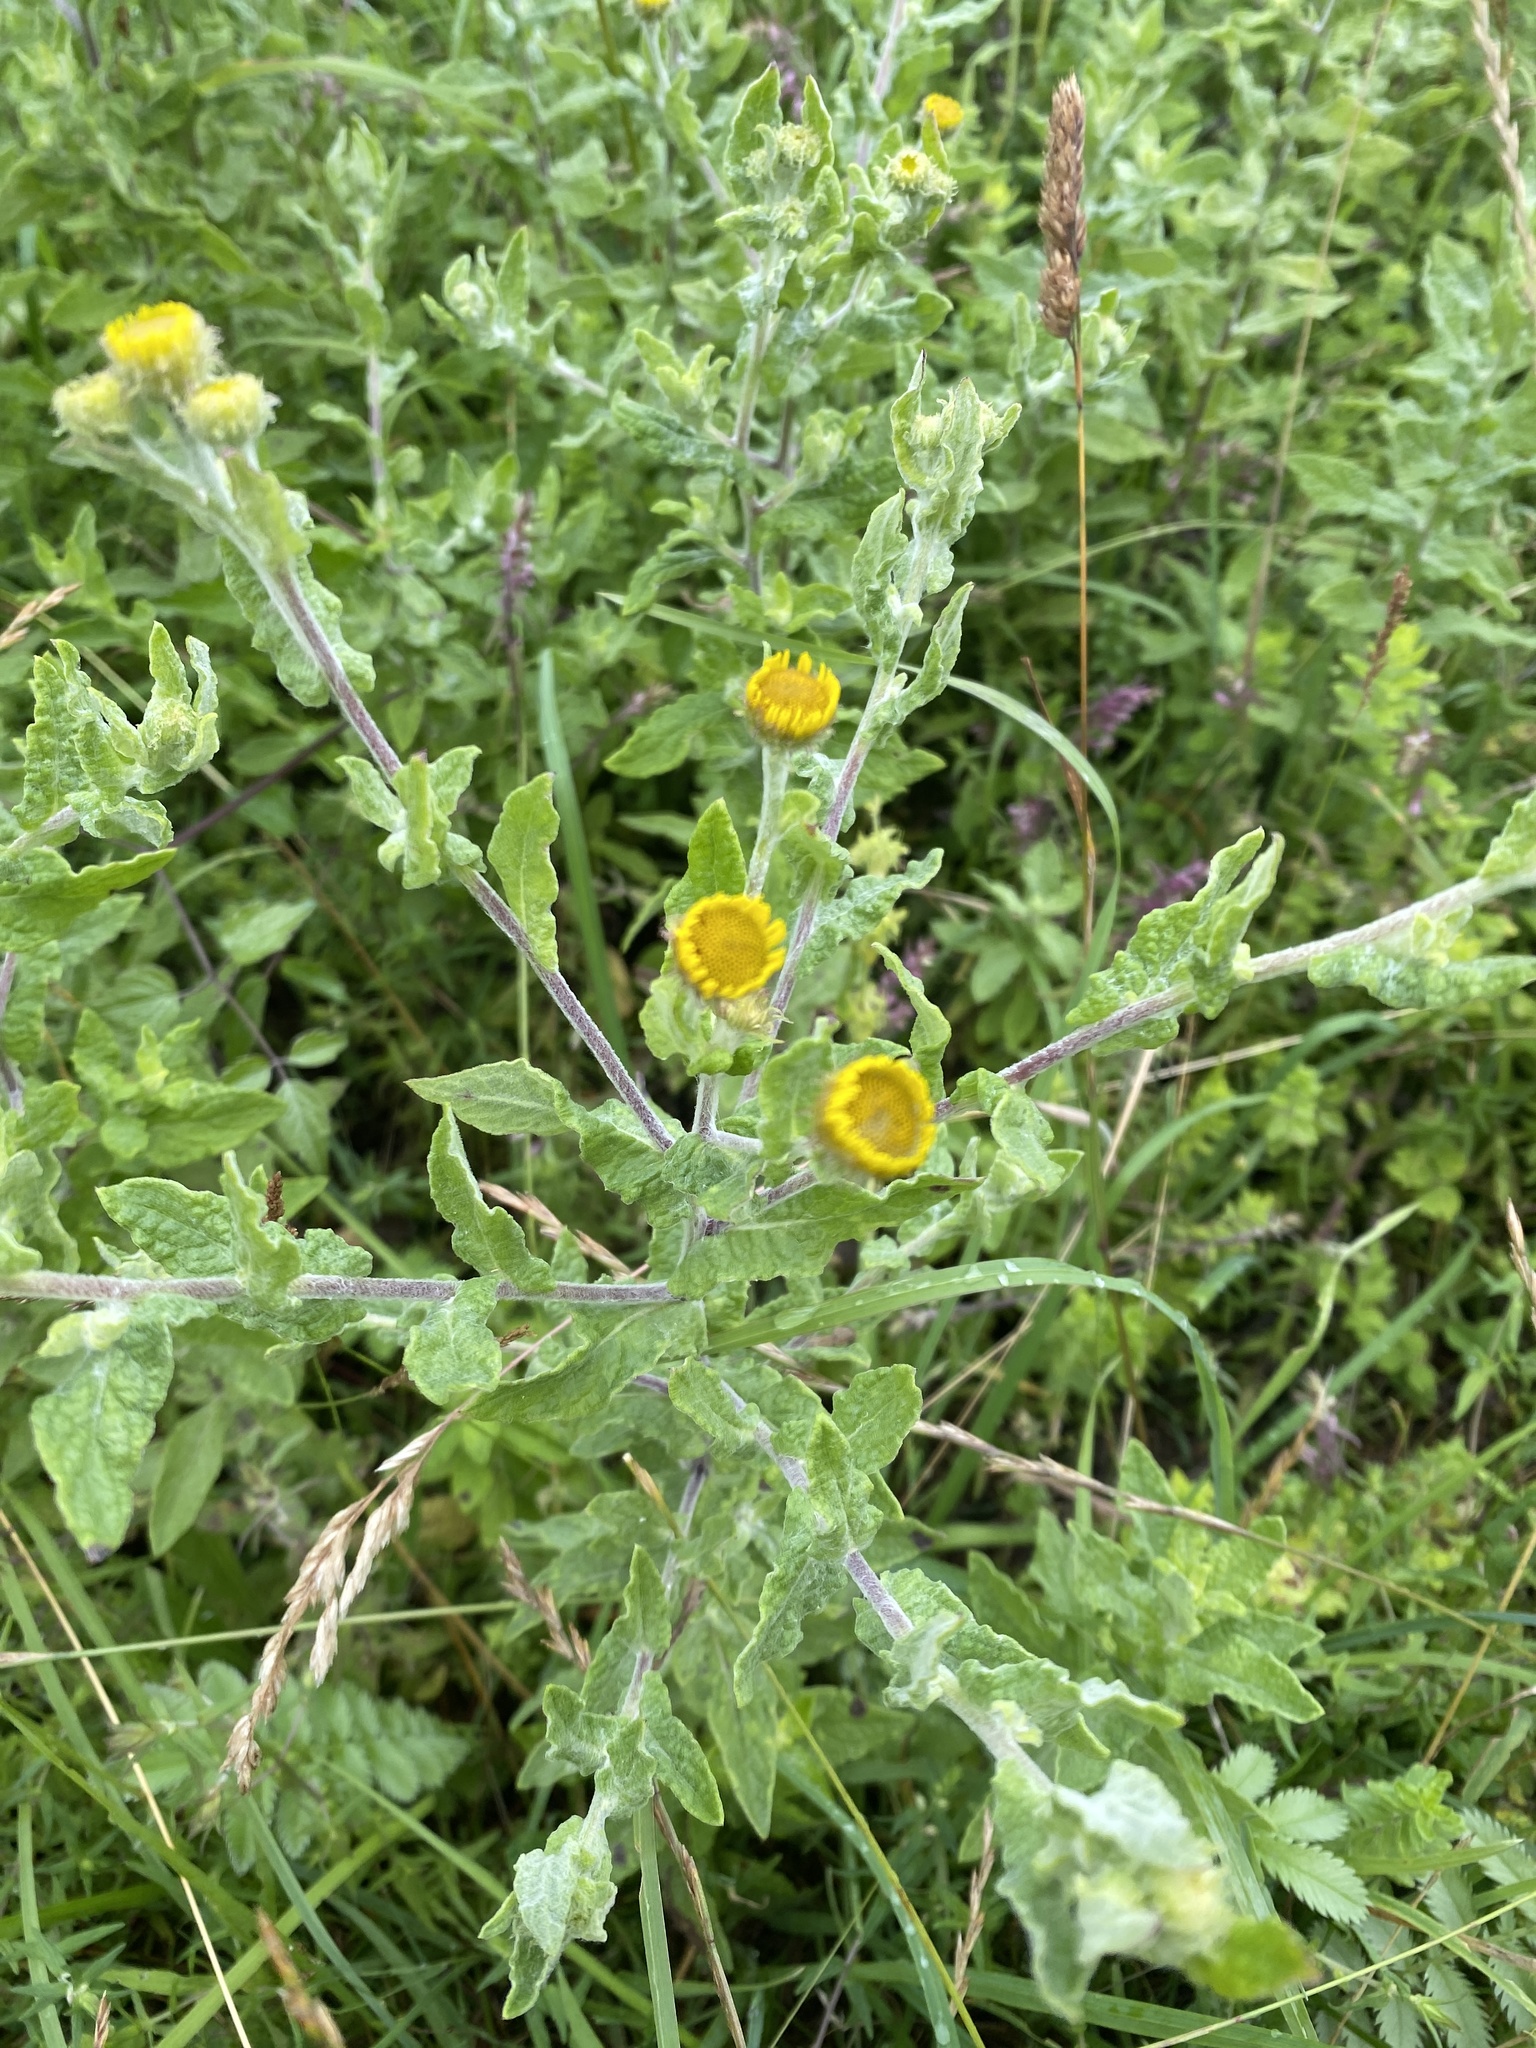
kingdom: Plantae
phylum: Tracheophyta
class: Magnoliopsida
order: Asterales
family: Asteraceae
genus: Pulicaria
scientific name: Pulicaria dysenterica
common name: Common fleabane
